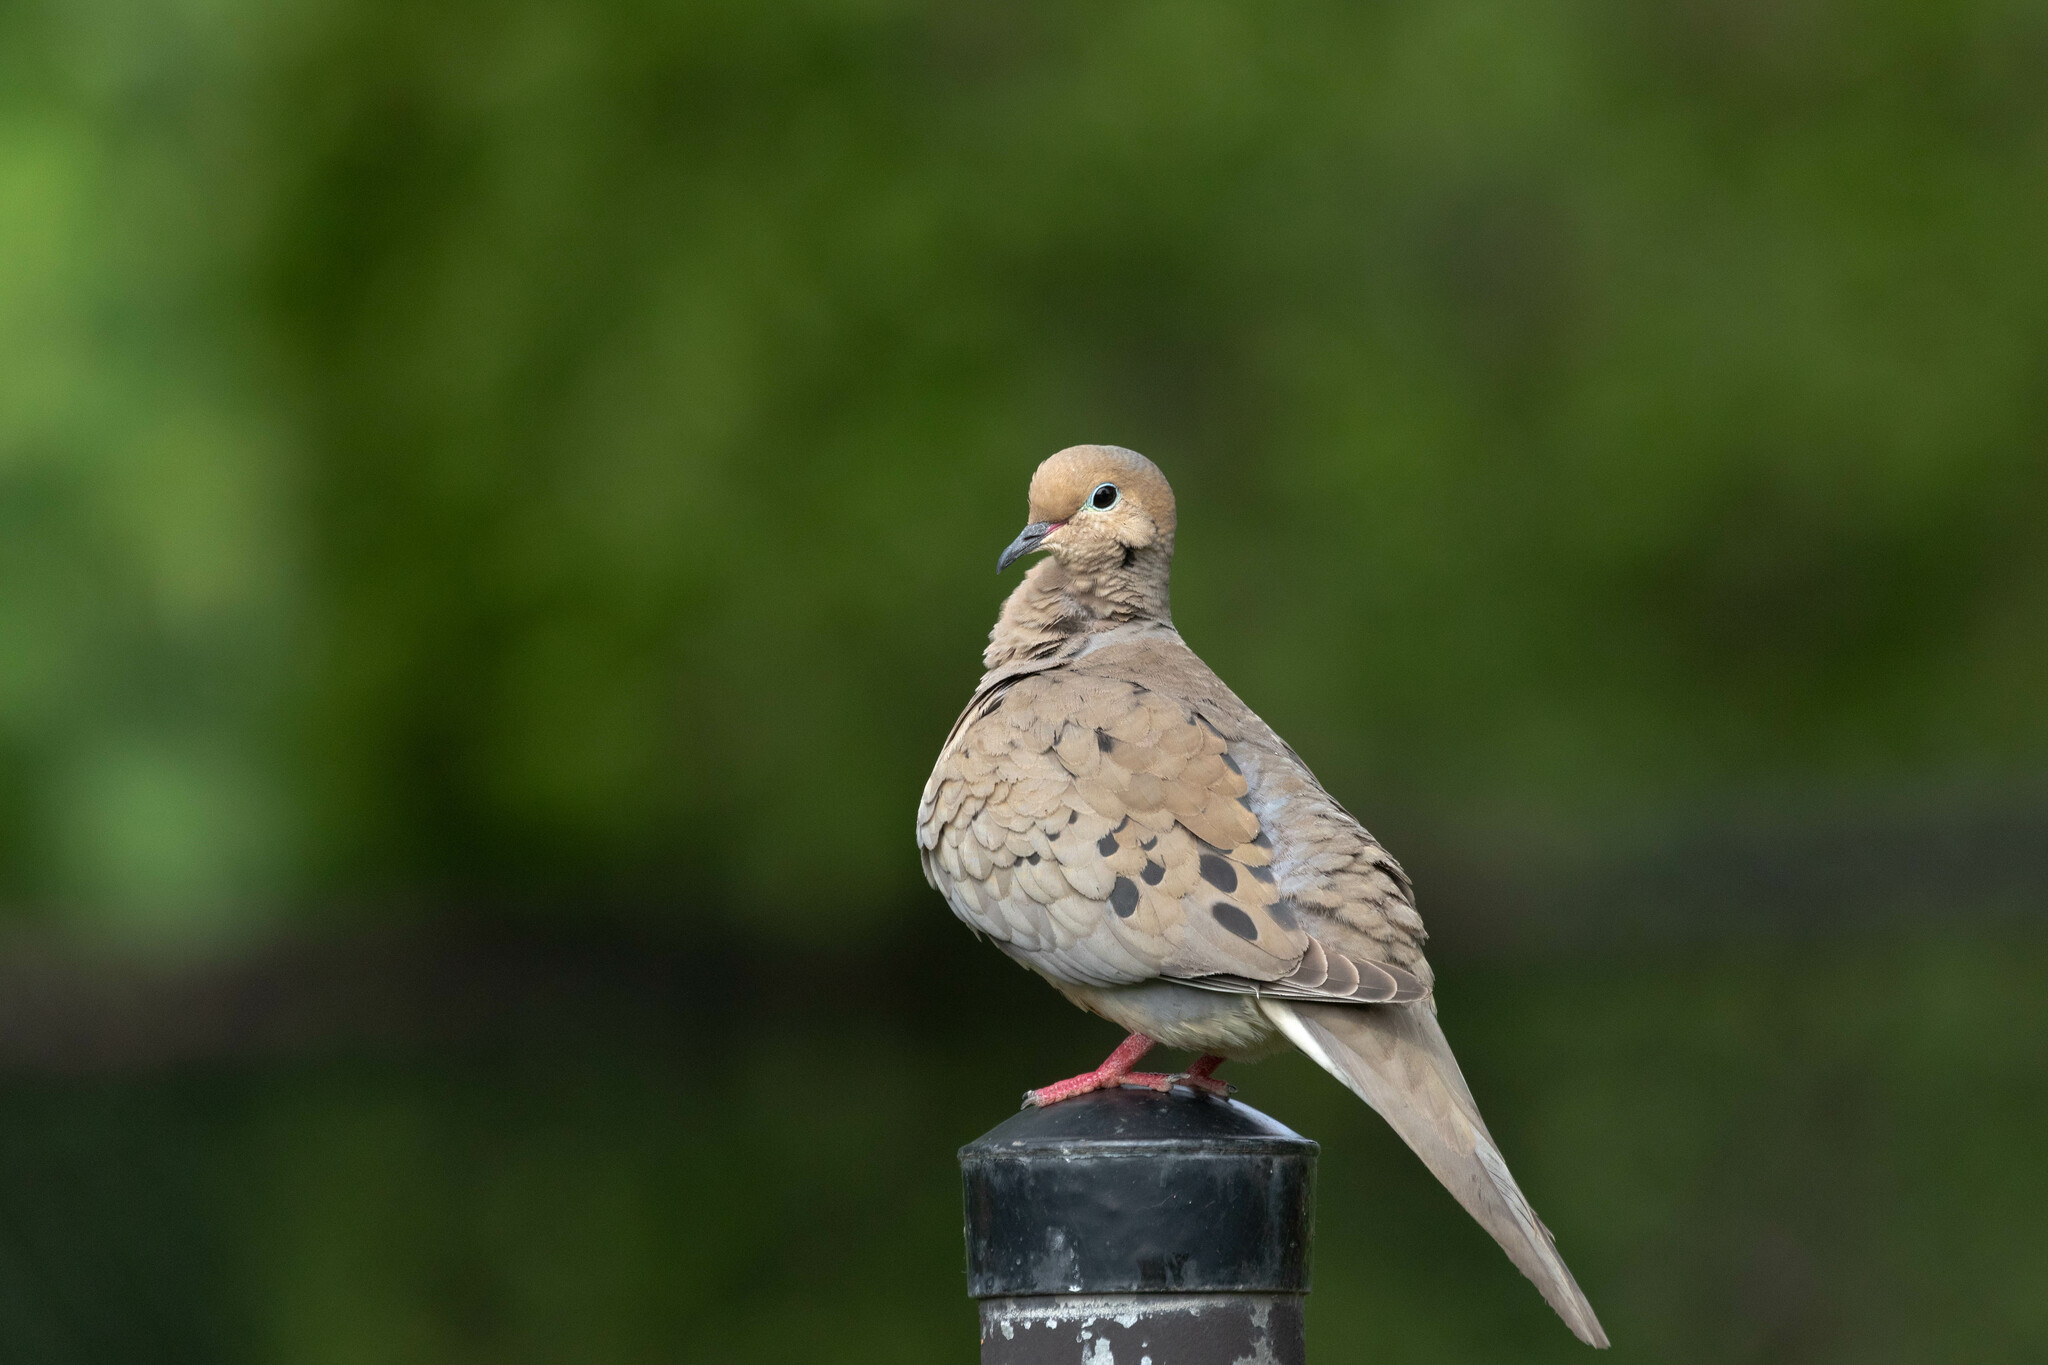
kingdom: Animalia
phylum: Chordata
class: Aves
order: Columbiformes
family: Columbidae
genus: Zenaida
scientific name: Zenaida macroura
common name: Mourning dove
